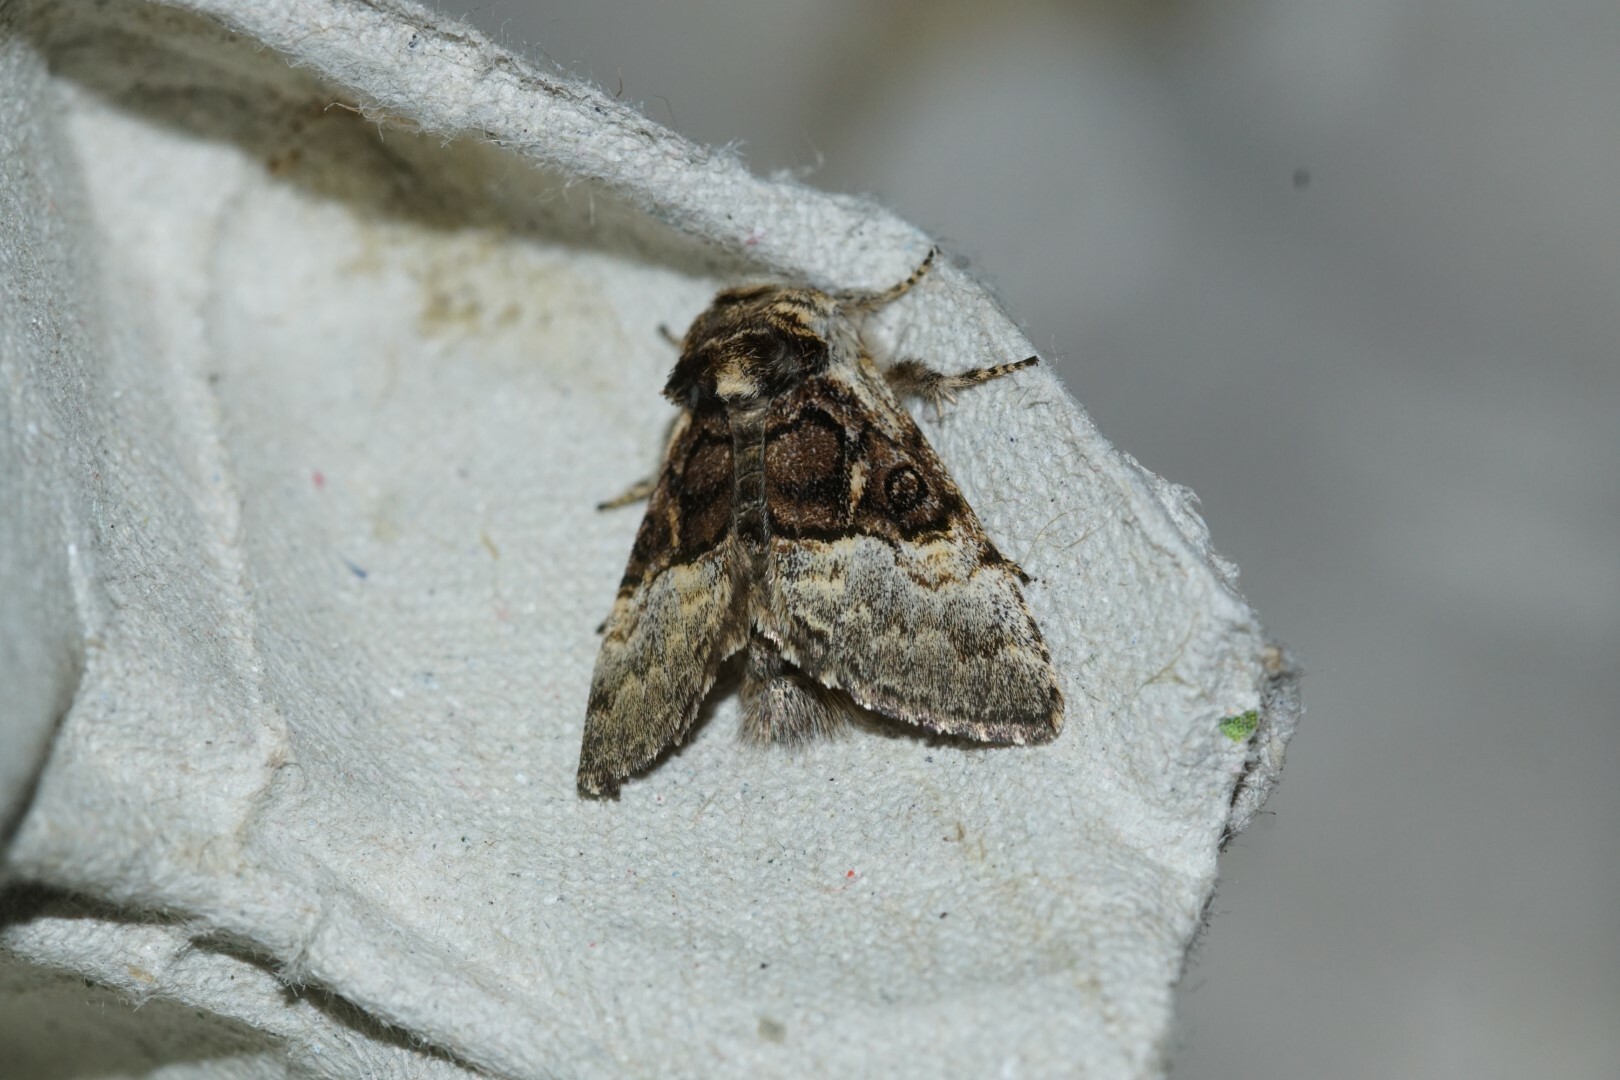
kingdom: Animalia
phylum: Arthropoda
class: Insecta
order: Lepidoptera
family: Noctuidae
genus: Colocasia
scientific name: Colocasia coryli
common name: Nut-tree tussock
